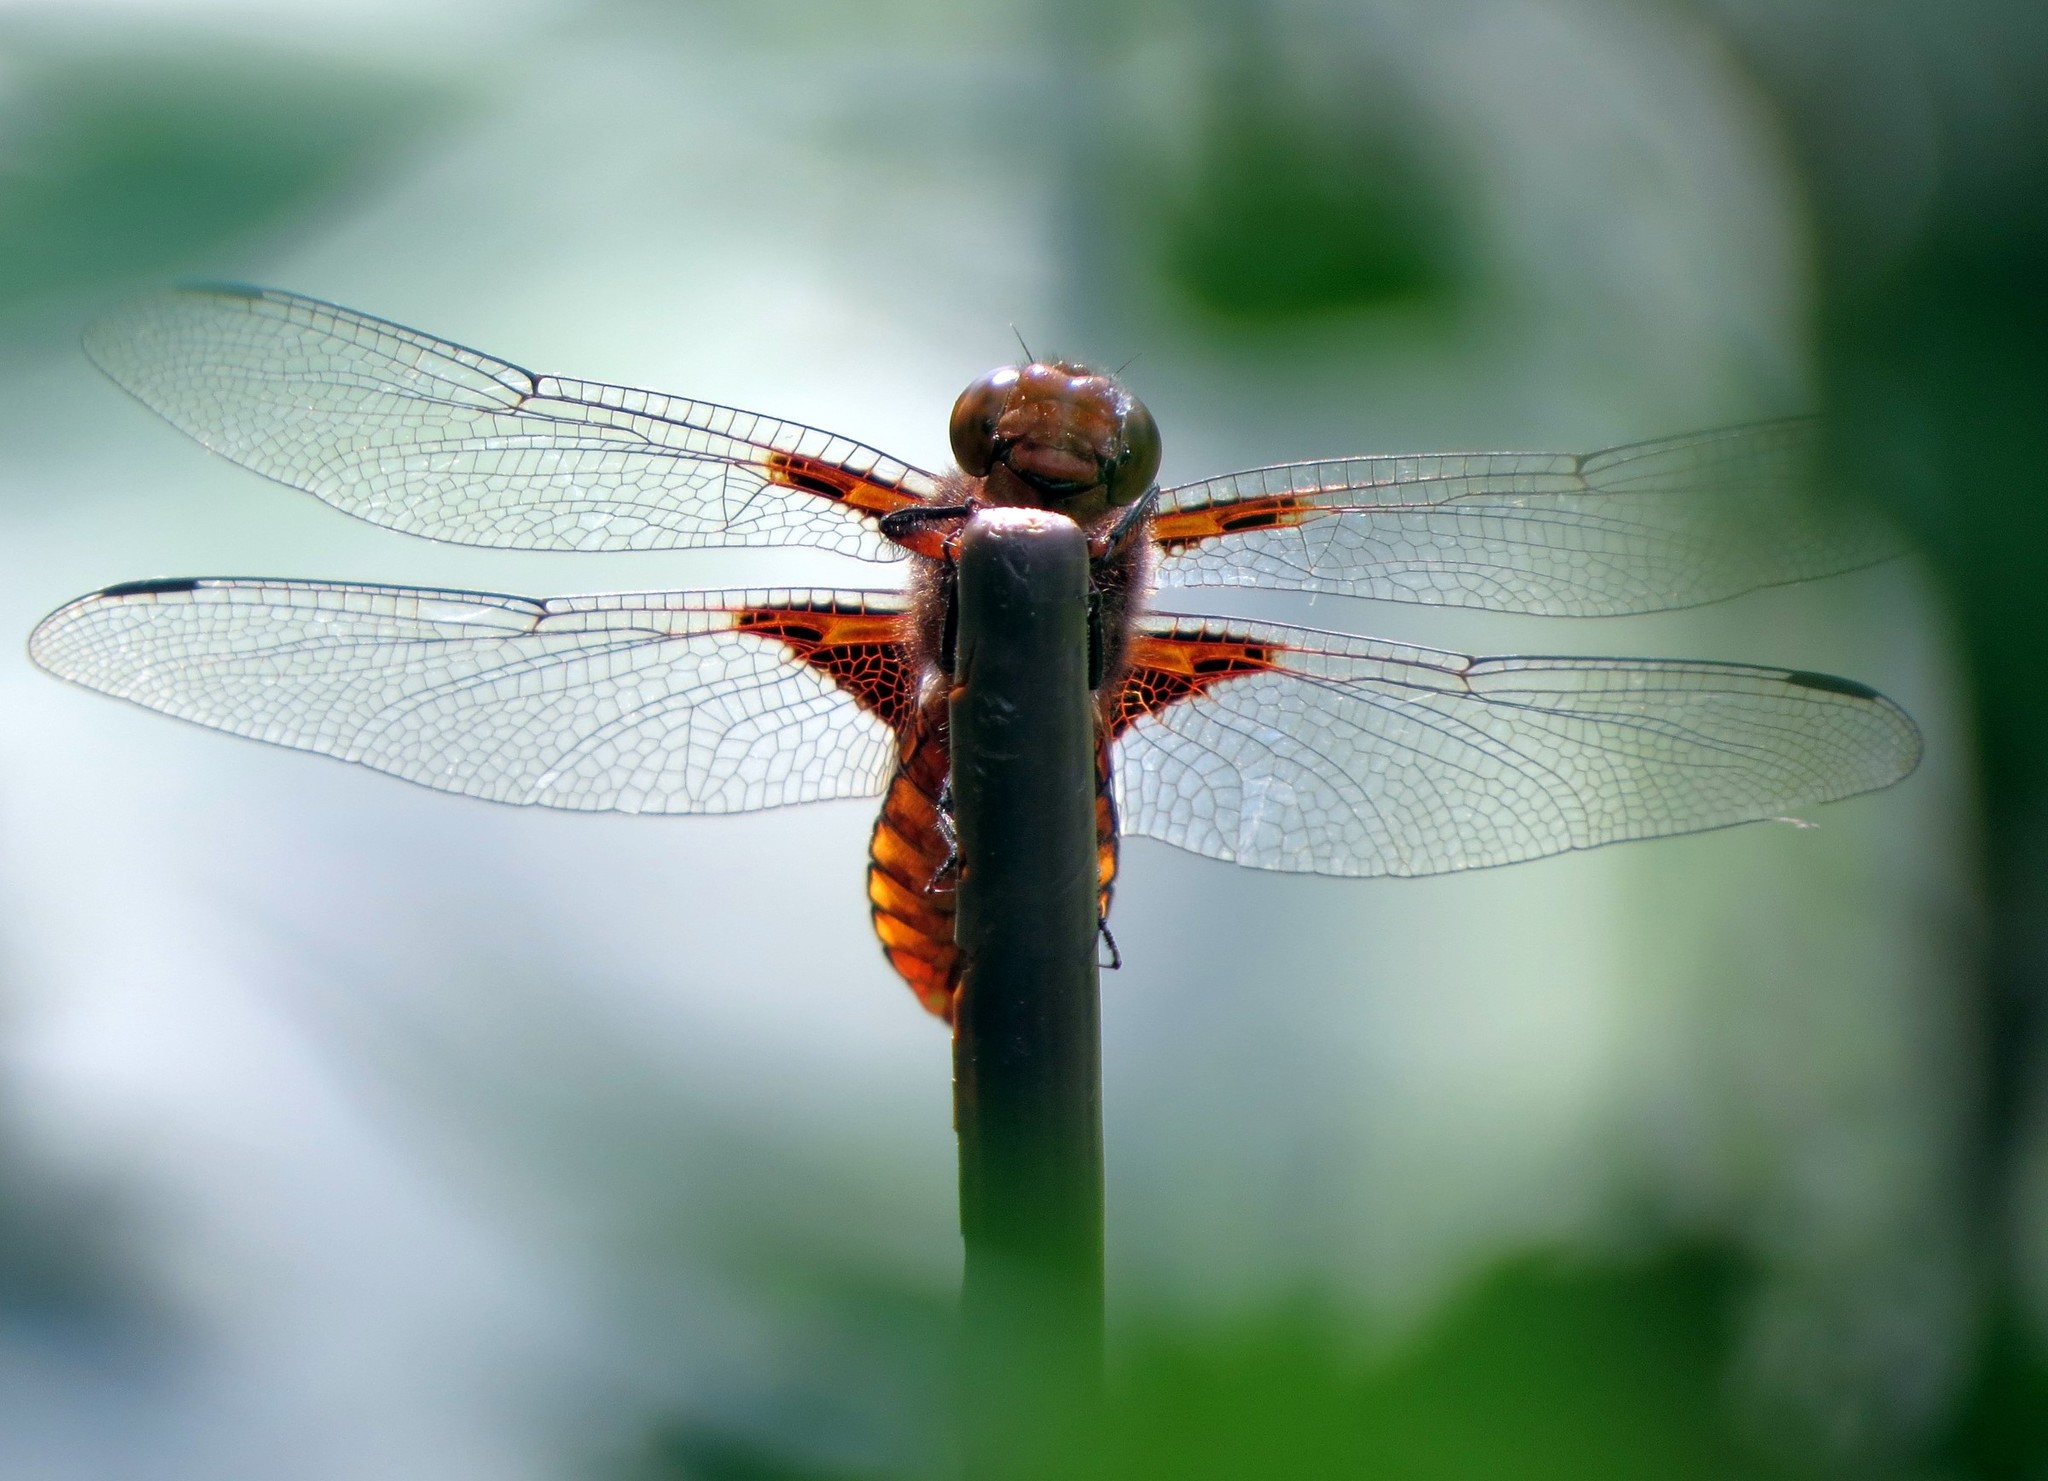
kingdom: Animalia
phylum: Arthropoda
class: Insecta
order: Odonata
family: Libellulidae
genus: Libellula
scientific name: Libellula depressa
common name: Broad-bodied chaser
